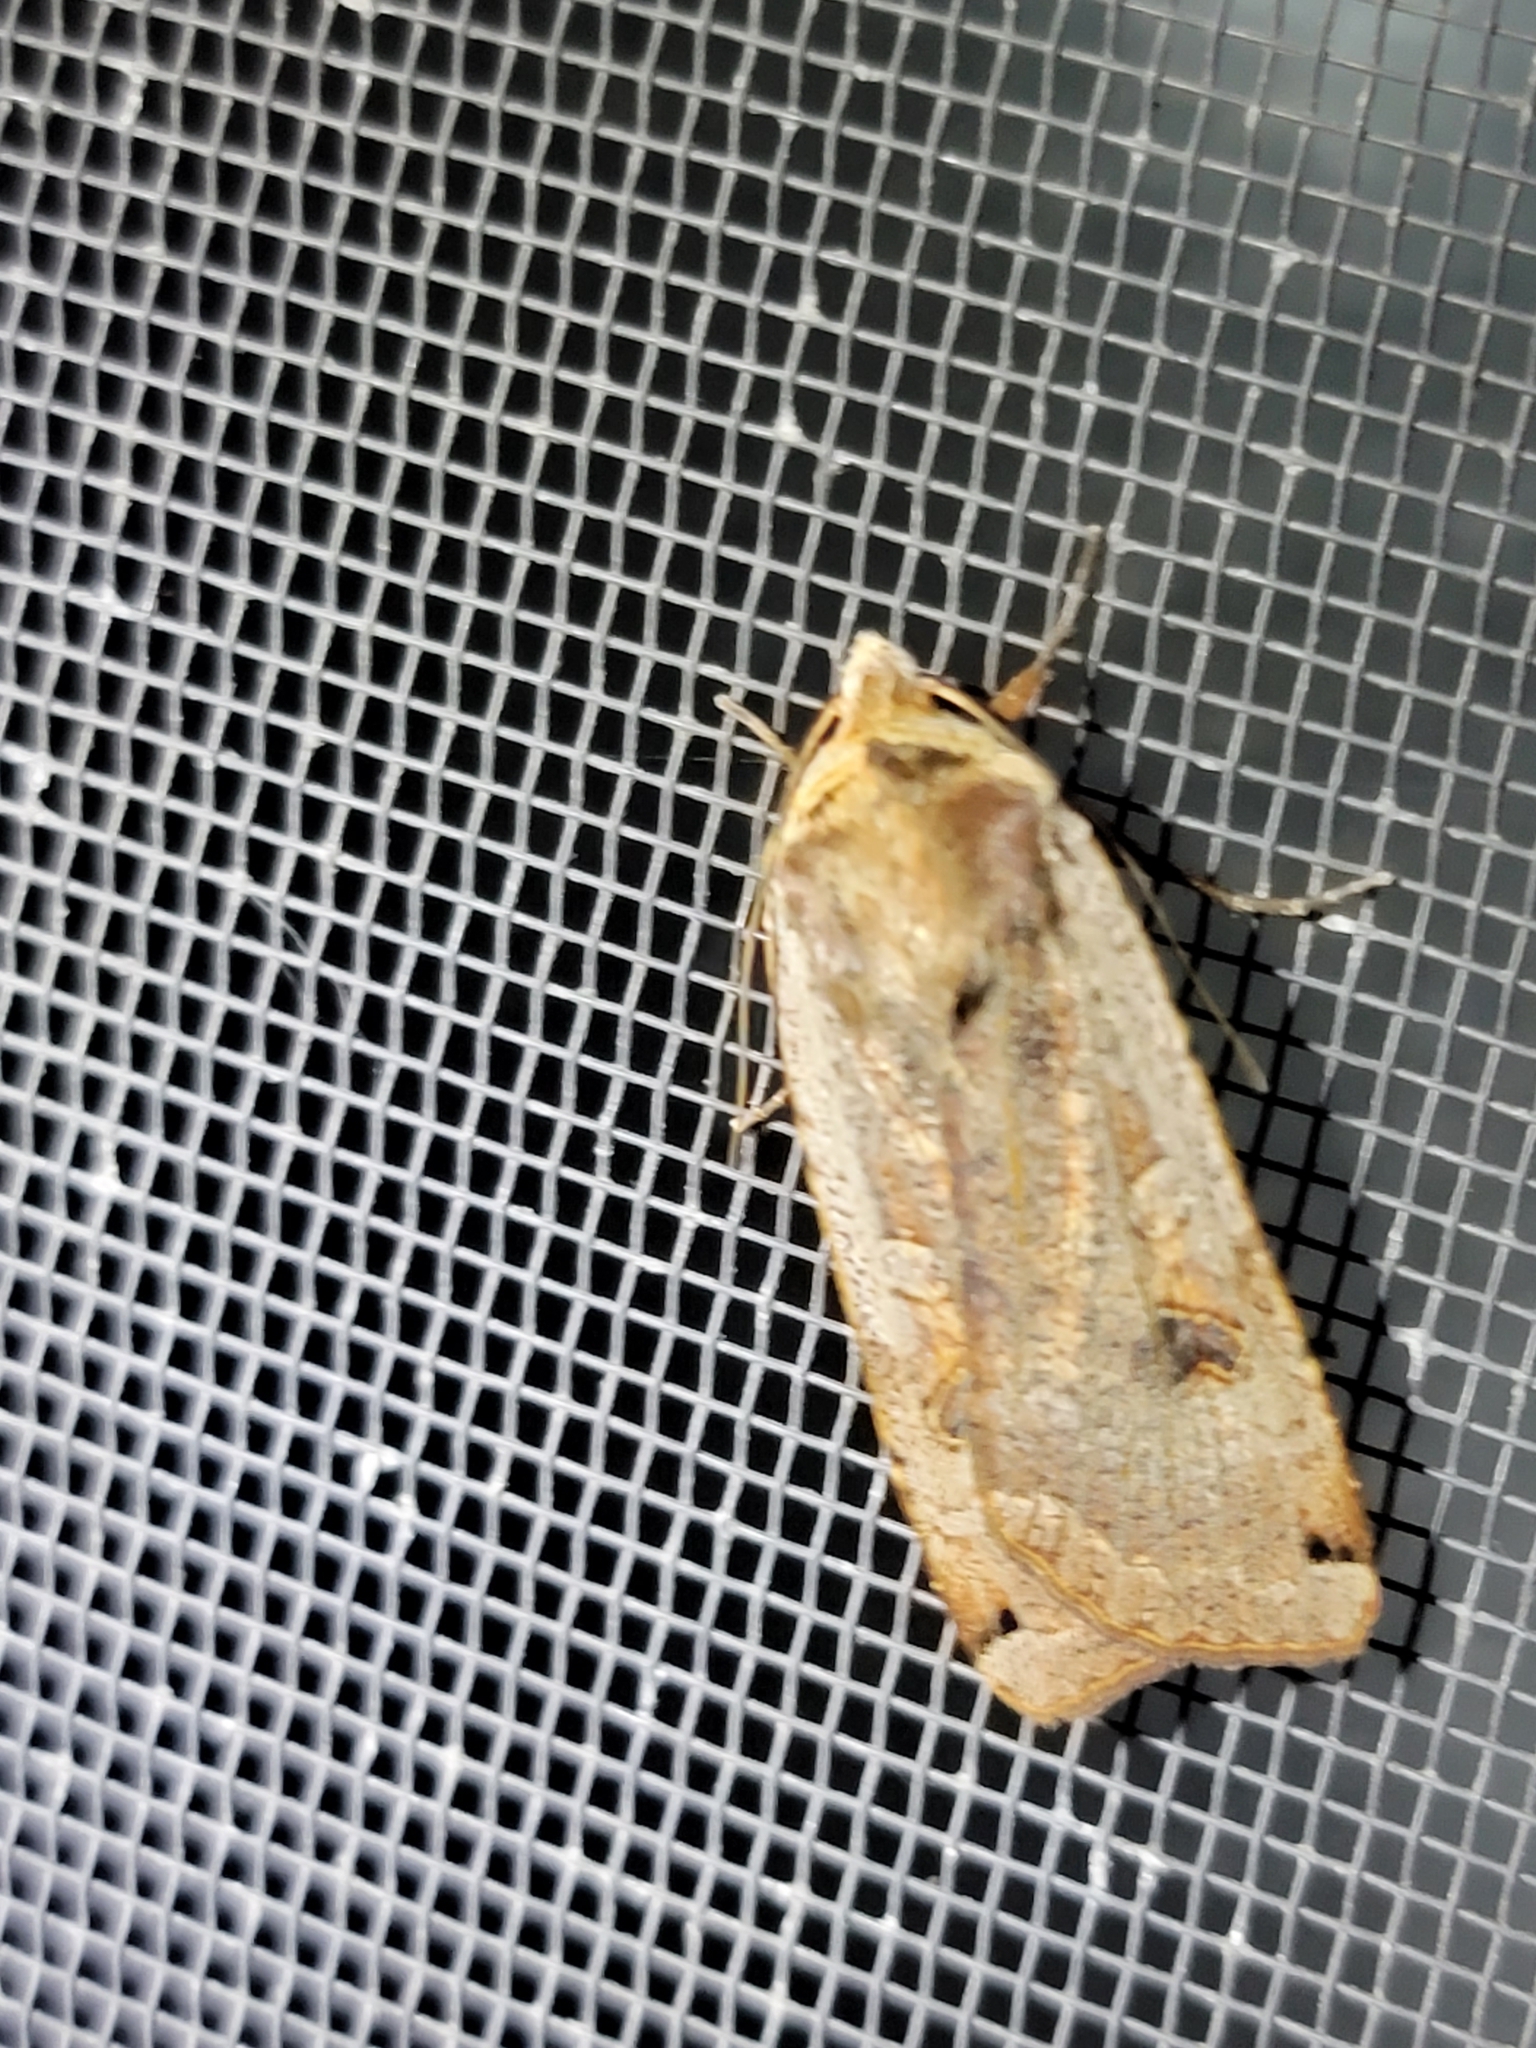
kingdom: Animalia
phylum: Arthropoda
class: Insecta
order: Lepidoptera
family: Noctuidae
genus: Noctua
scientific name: Noctua pronuba
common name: Large yellow underwing
